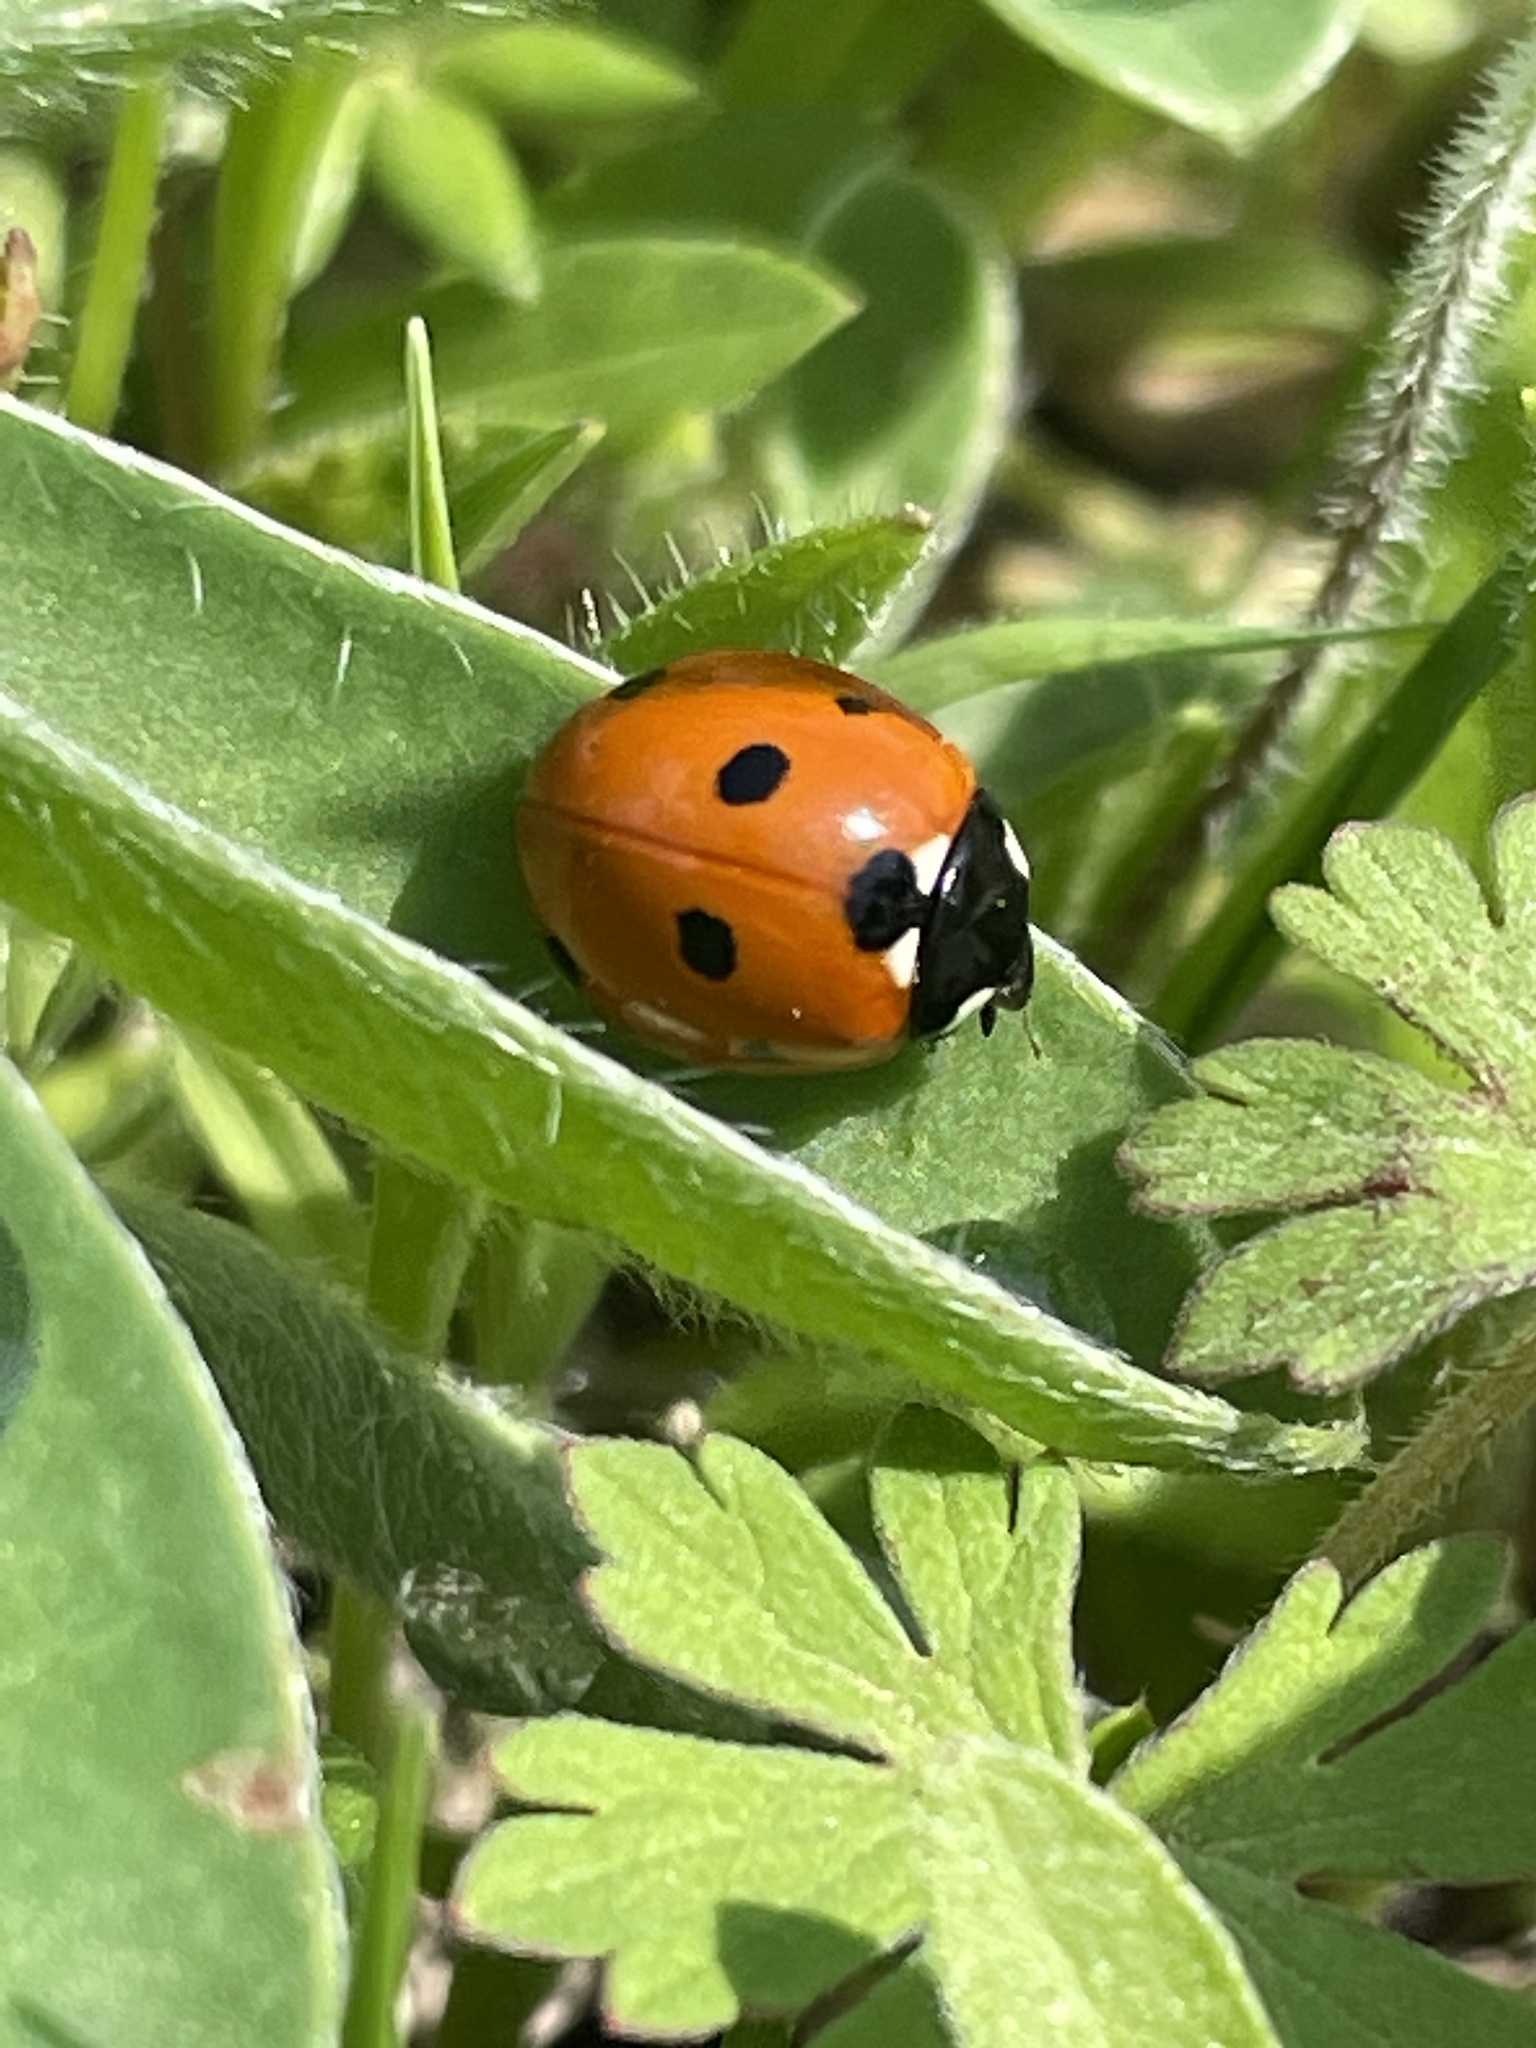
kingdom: Animalia
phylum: Arthropoda
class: Insecta
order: Coleoptera
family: Coccinellidae
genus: Coccinella
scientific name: Coccinella septempunctata
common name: Sevenspotted lady beetle
